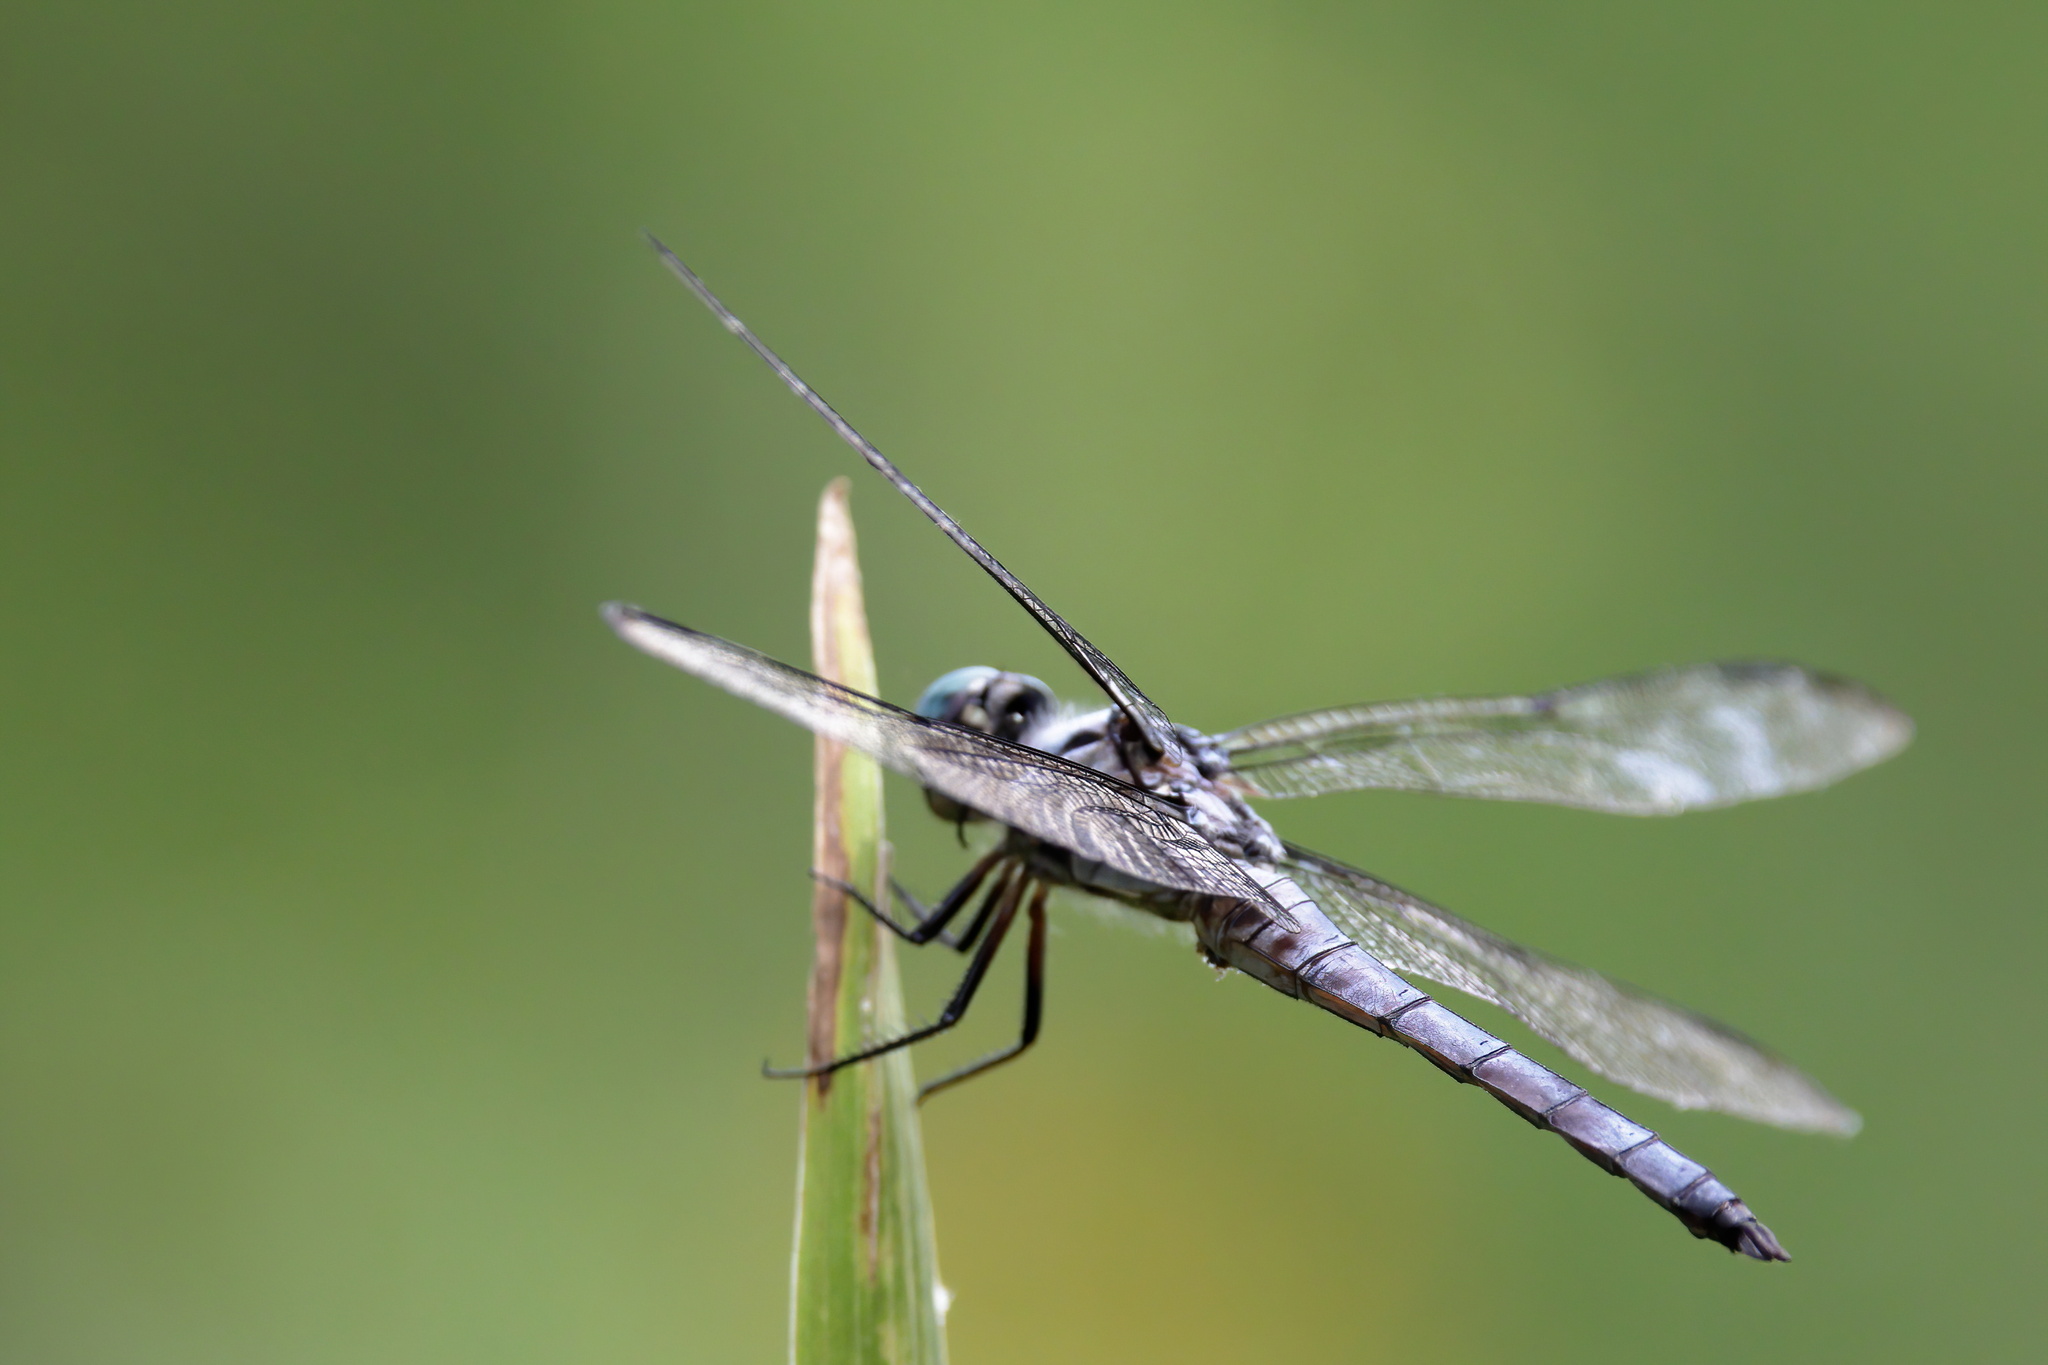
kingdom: Animalia
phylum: Arthropoda
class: Insecta
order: Odonata
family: Libellulidae
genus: Libellula
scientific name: Libellula vibrans
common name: Great blue skimmer
